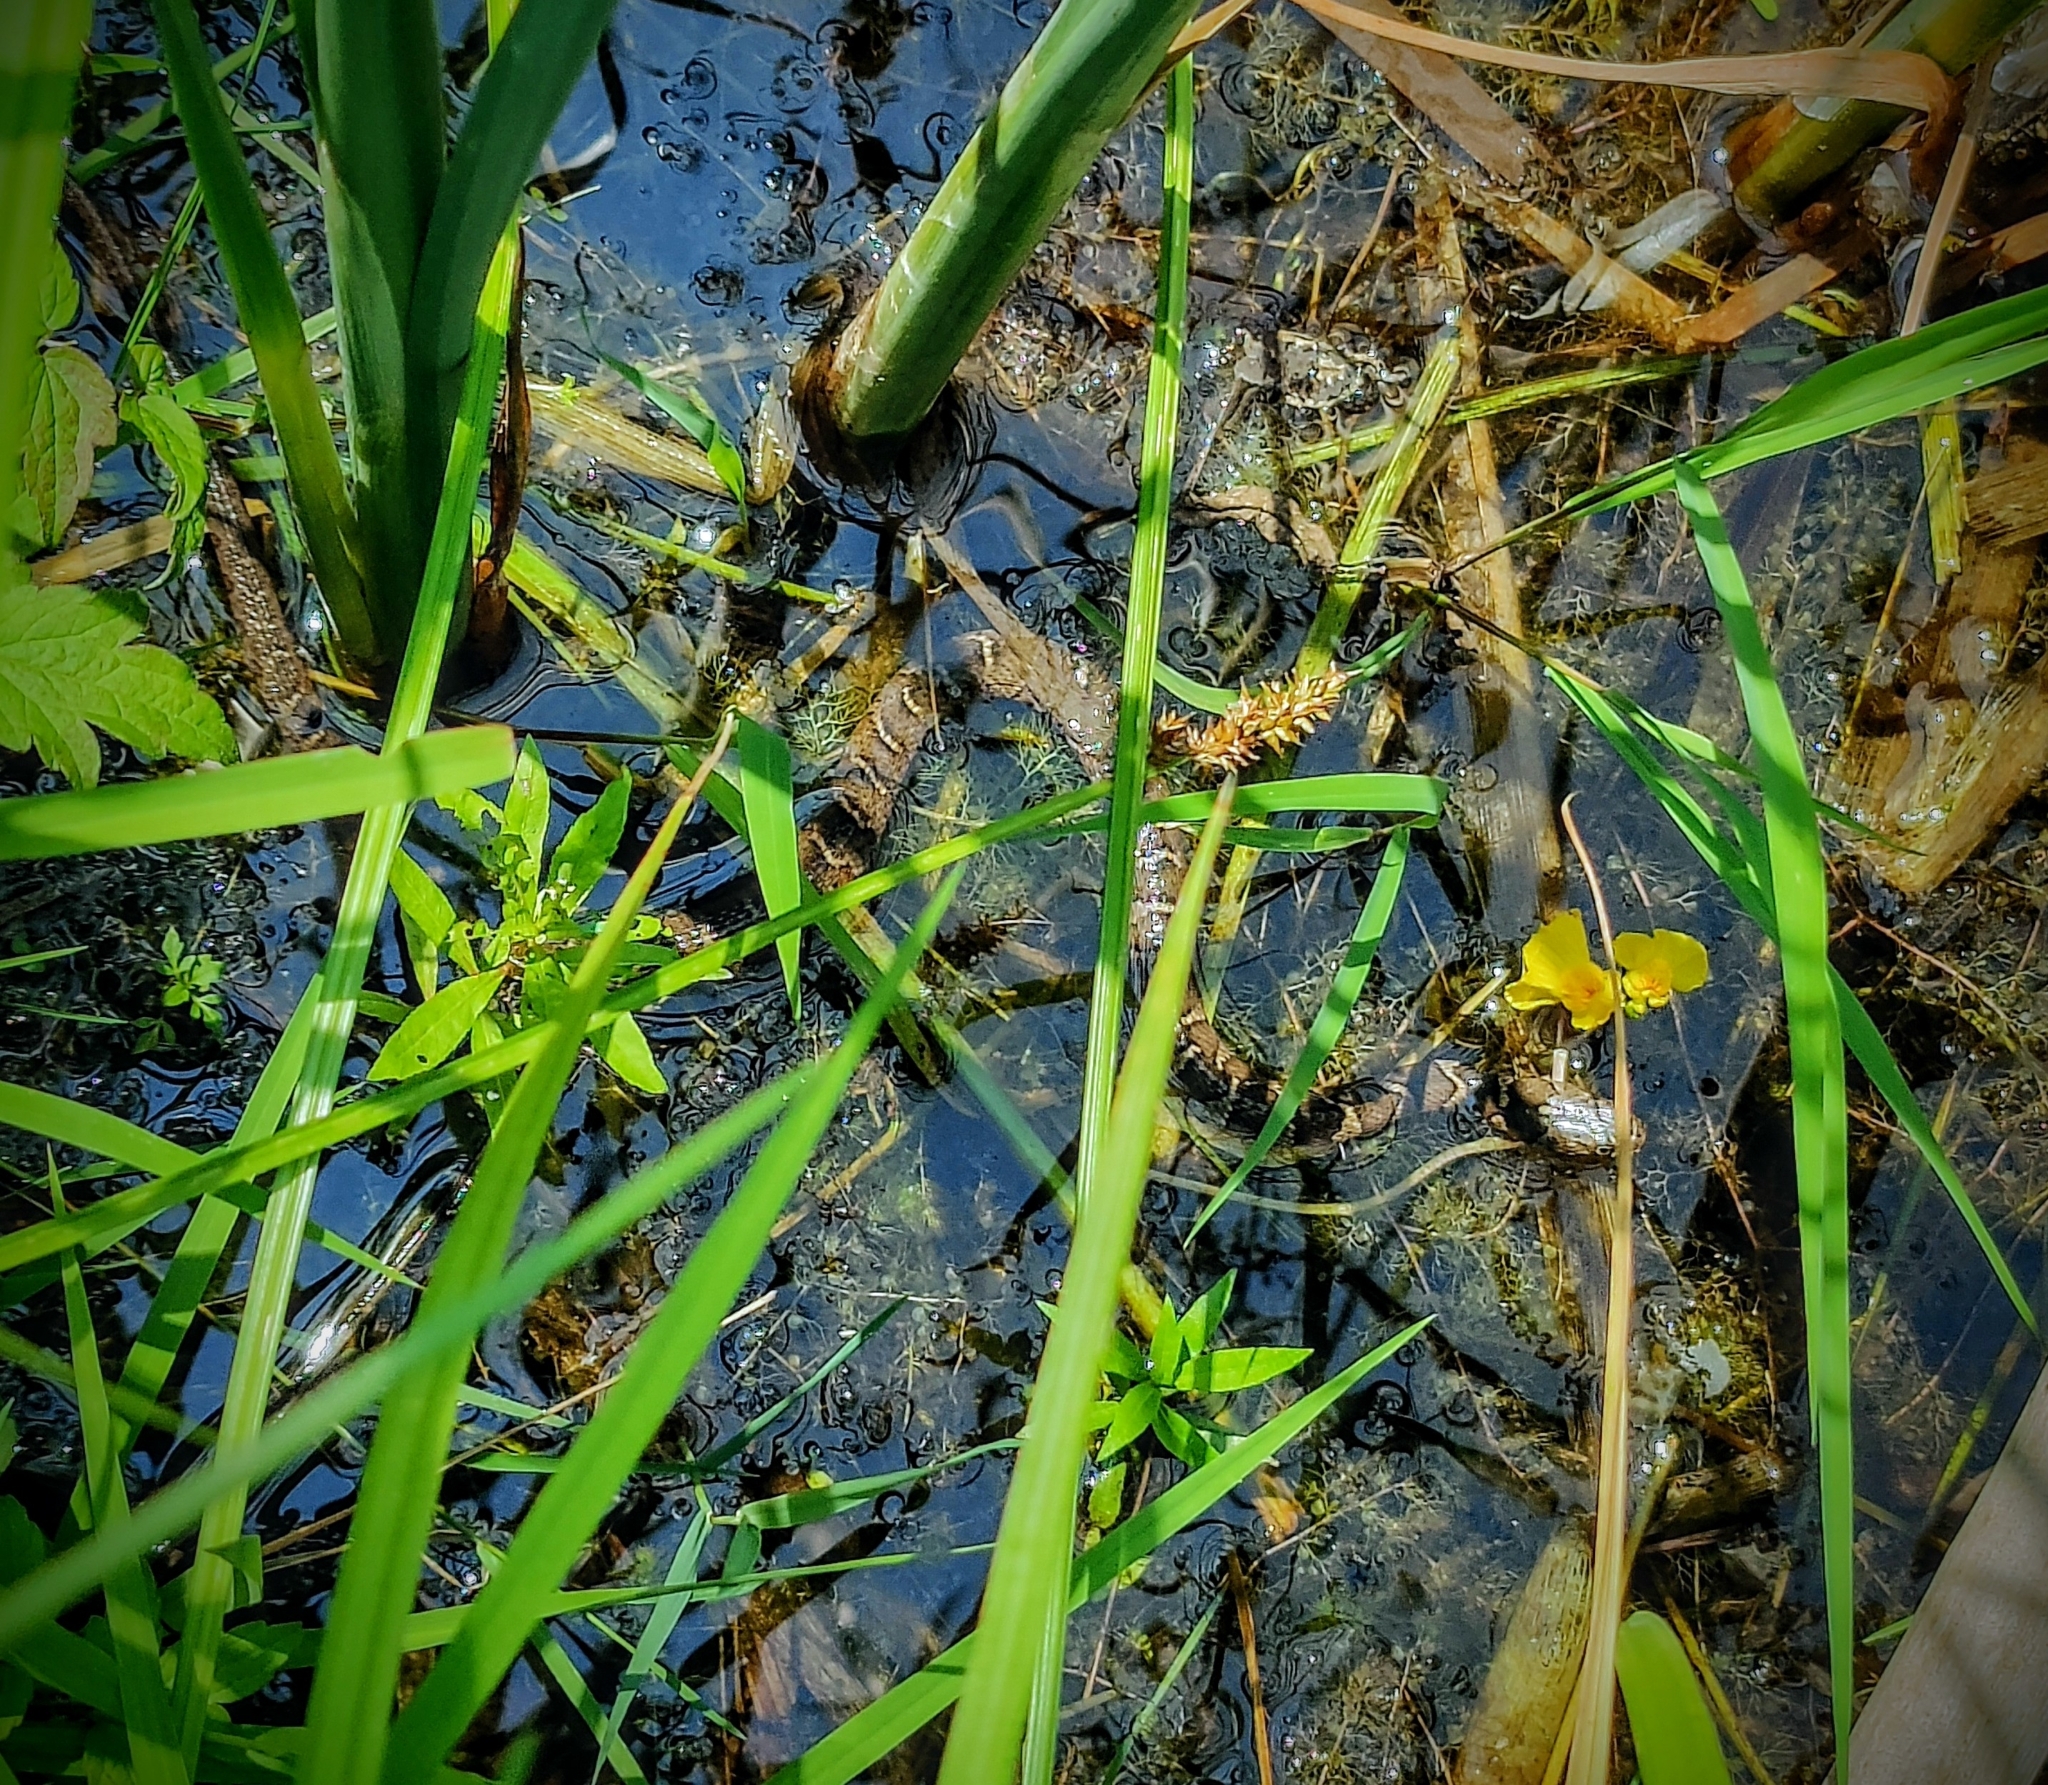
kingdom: Animalia
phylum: Chordata
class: Squamata
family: Colubridae
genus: Nerodia
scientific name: Nerodia sipedon
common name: Northern water snake
